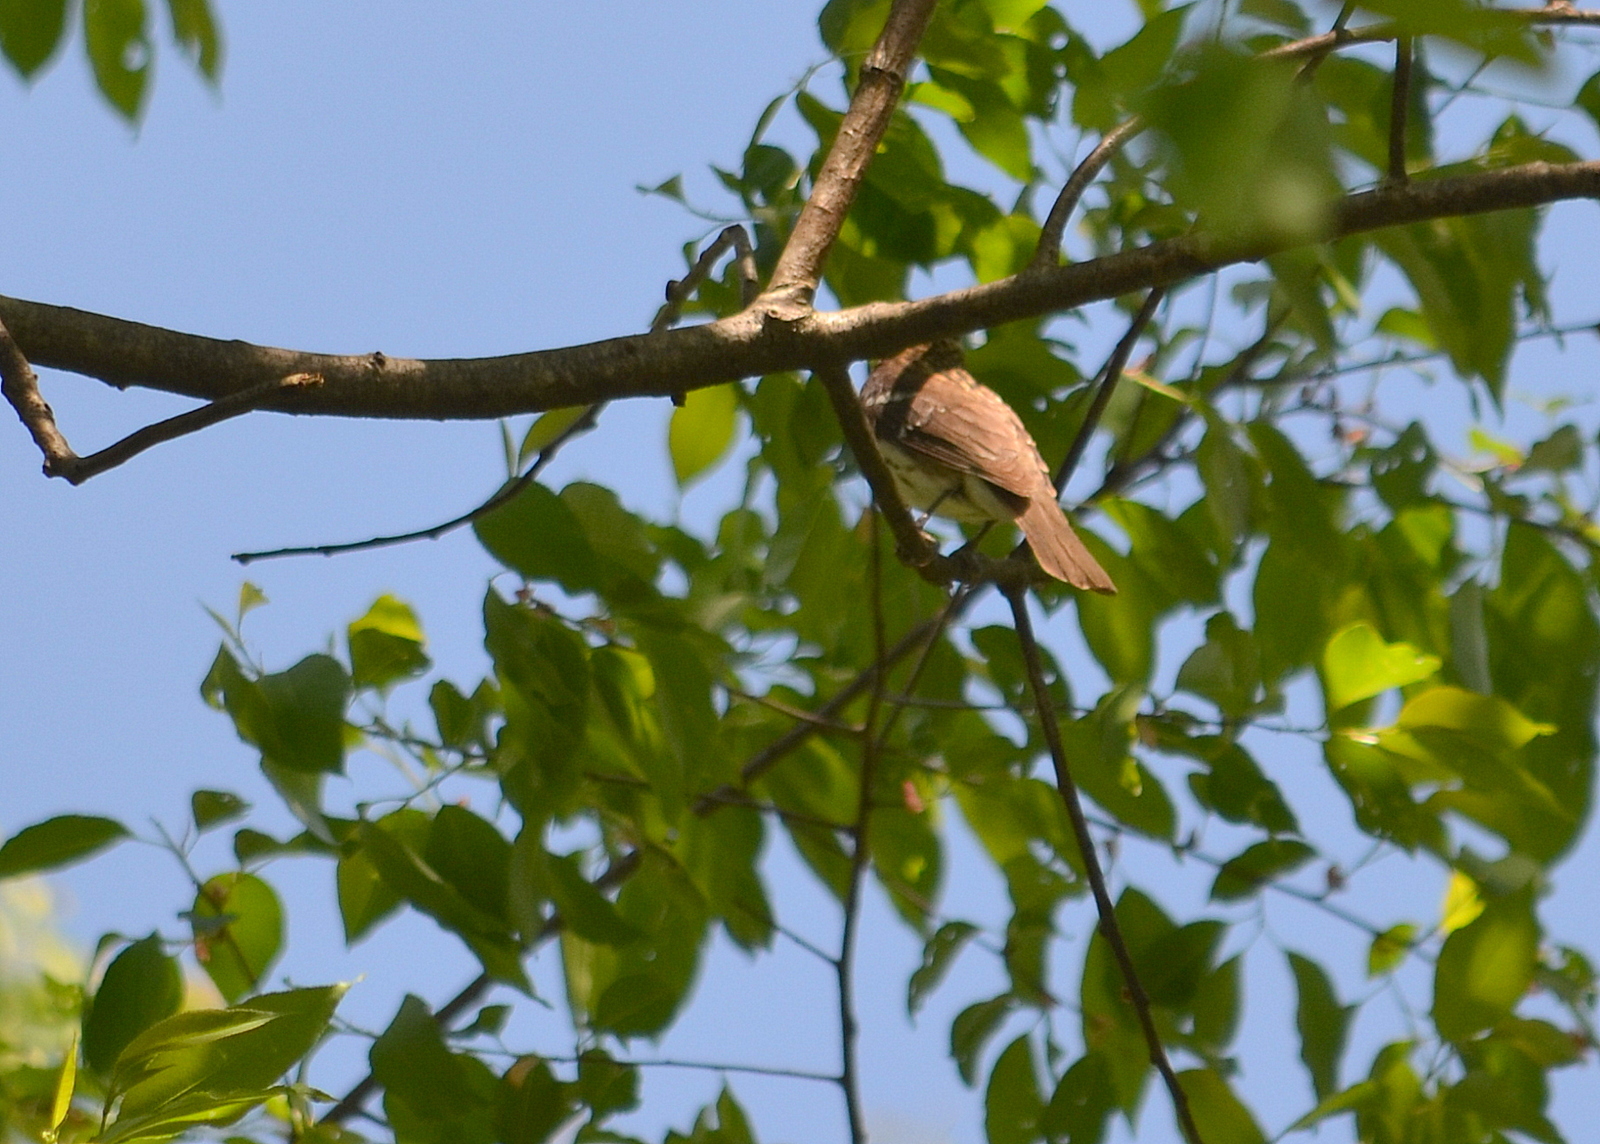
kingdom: Animalia
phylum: Chordata
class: Aves
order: Passeriformes
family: Cardinalidae
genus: Pheucticus
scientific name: Pheucticus ludovicianus
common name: Rose-breasted grosbeak
